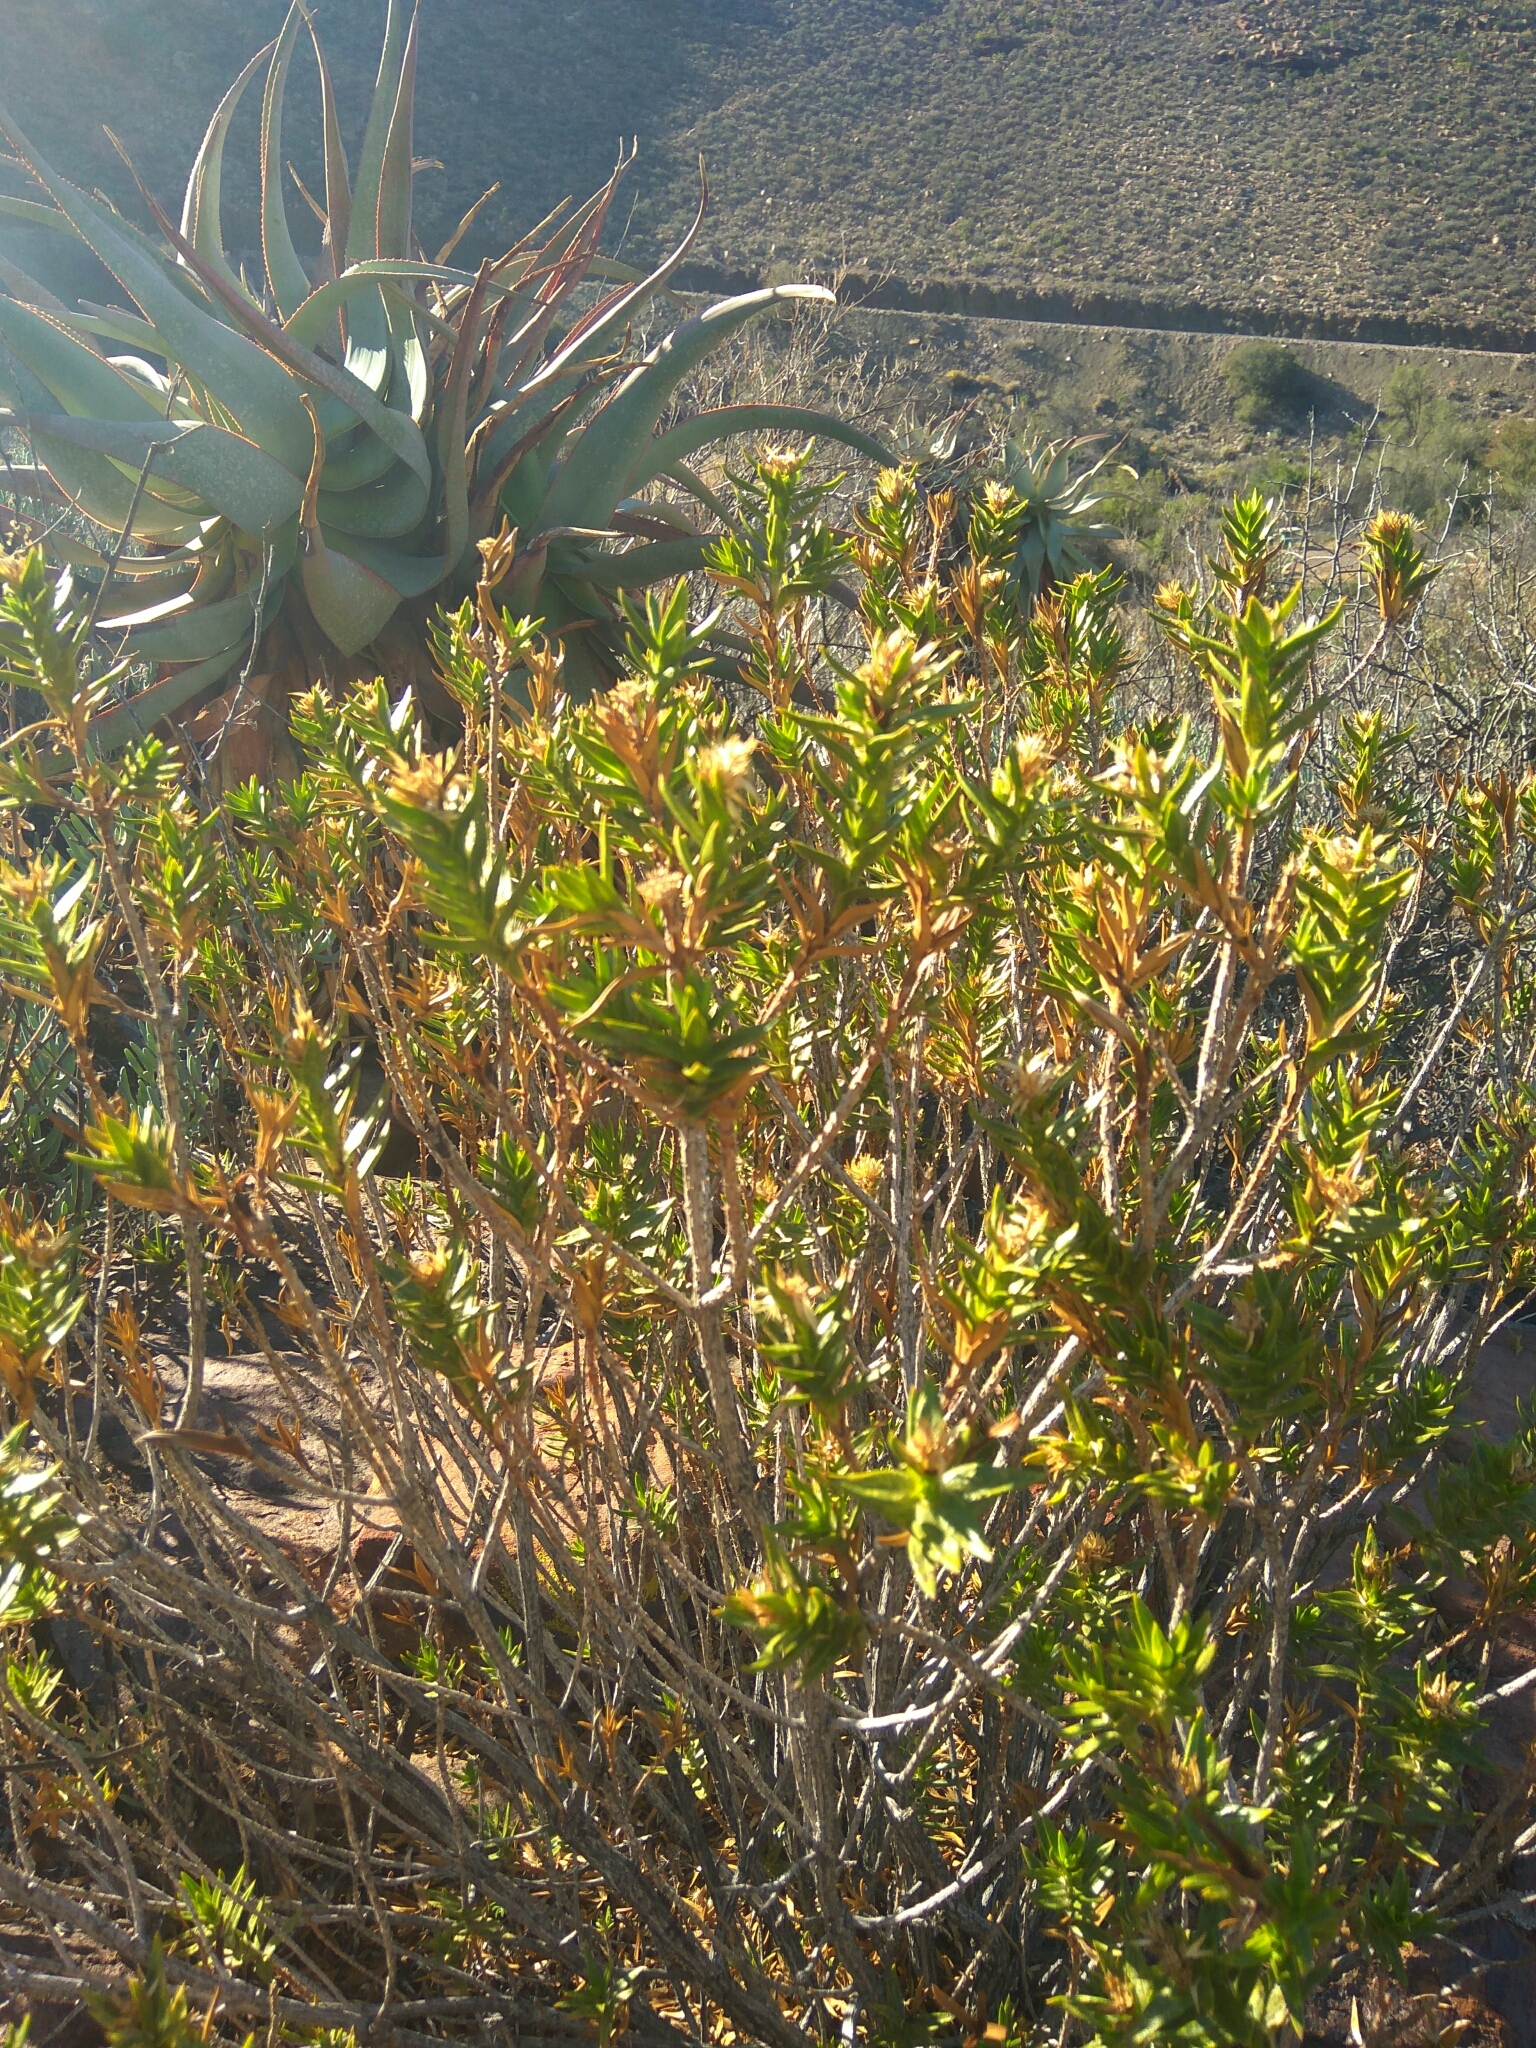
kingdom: Plantae
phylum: Tracheophyta
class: Magnoliopsida
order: Asterales
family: Asteraceae
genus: Pteronia
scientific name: Pteronia fasciculata
